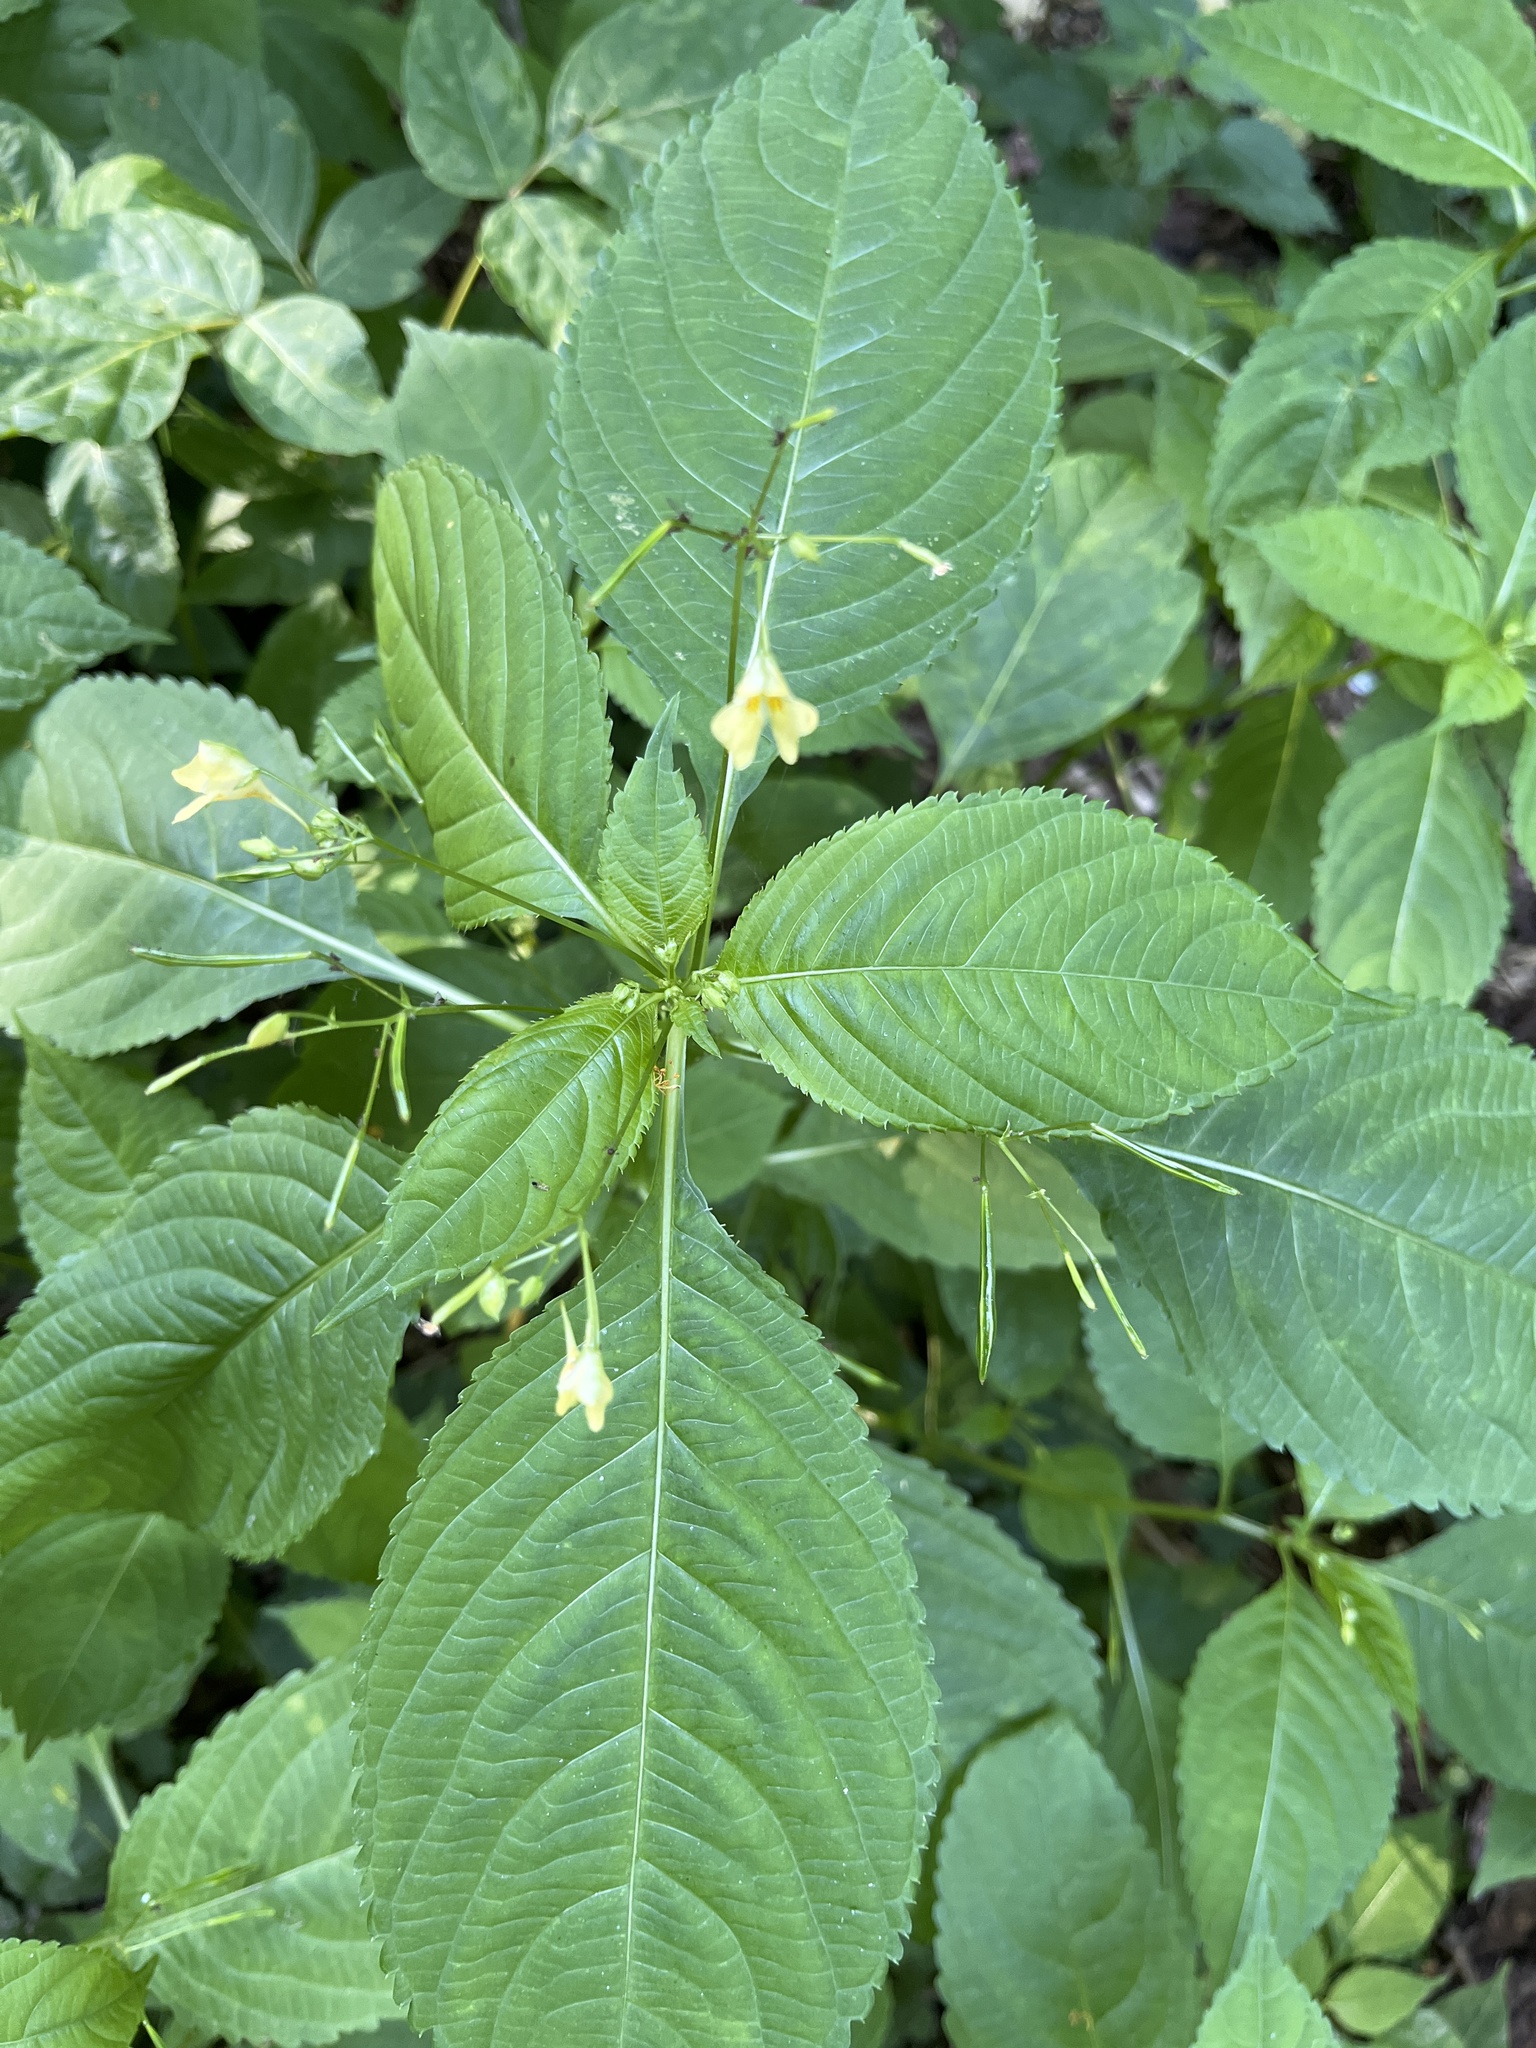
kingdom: Plantae
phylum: Tracheophyta
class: Magnoliopsida
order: Ericales
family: Balsaminaceae
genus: Impatiens
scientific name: Impatiens parviflora
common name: Small balsam
